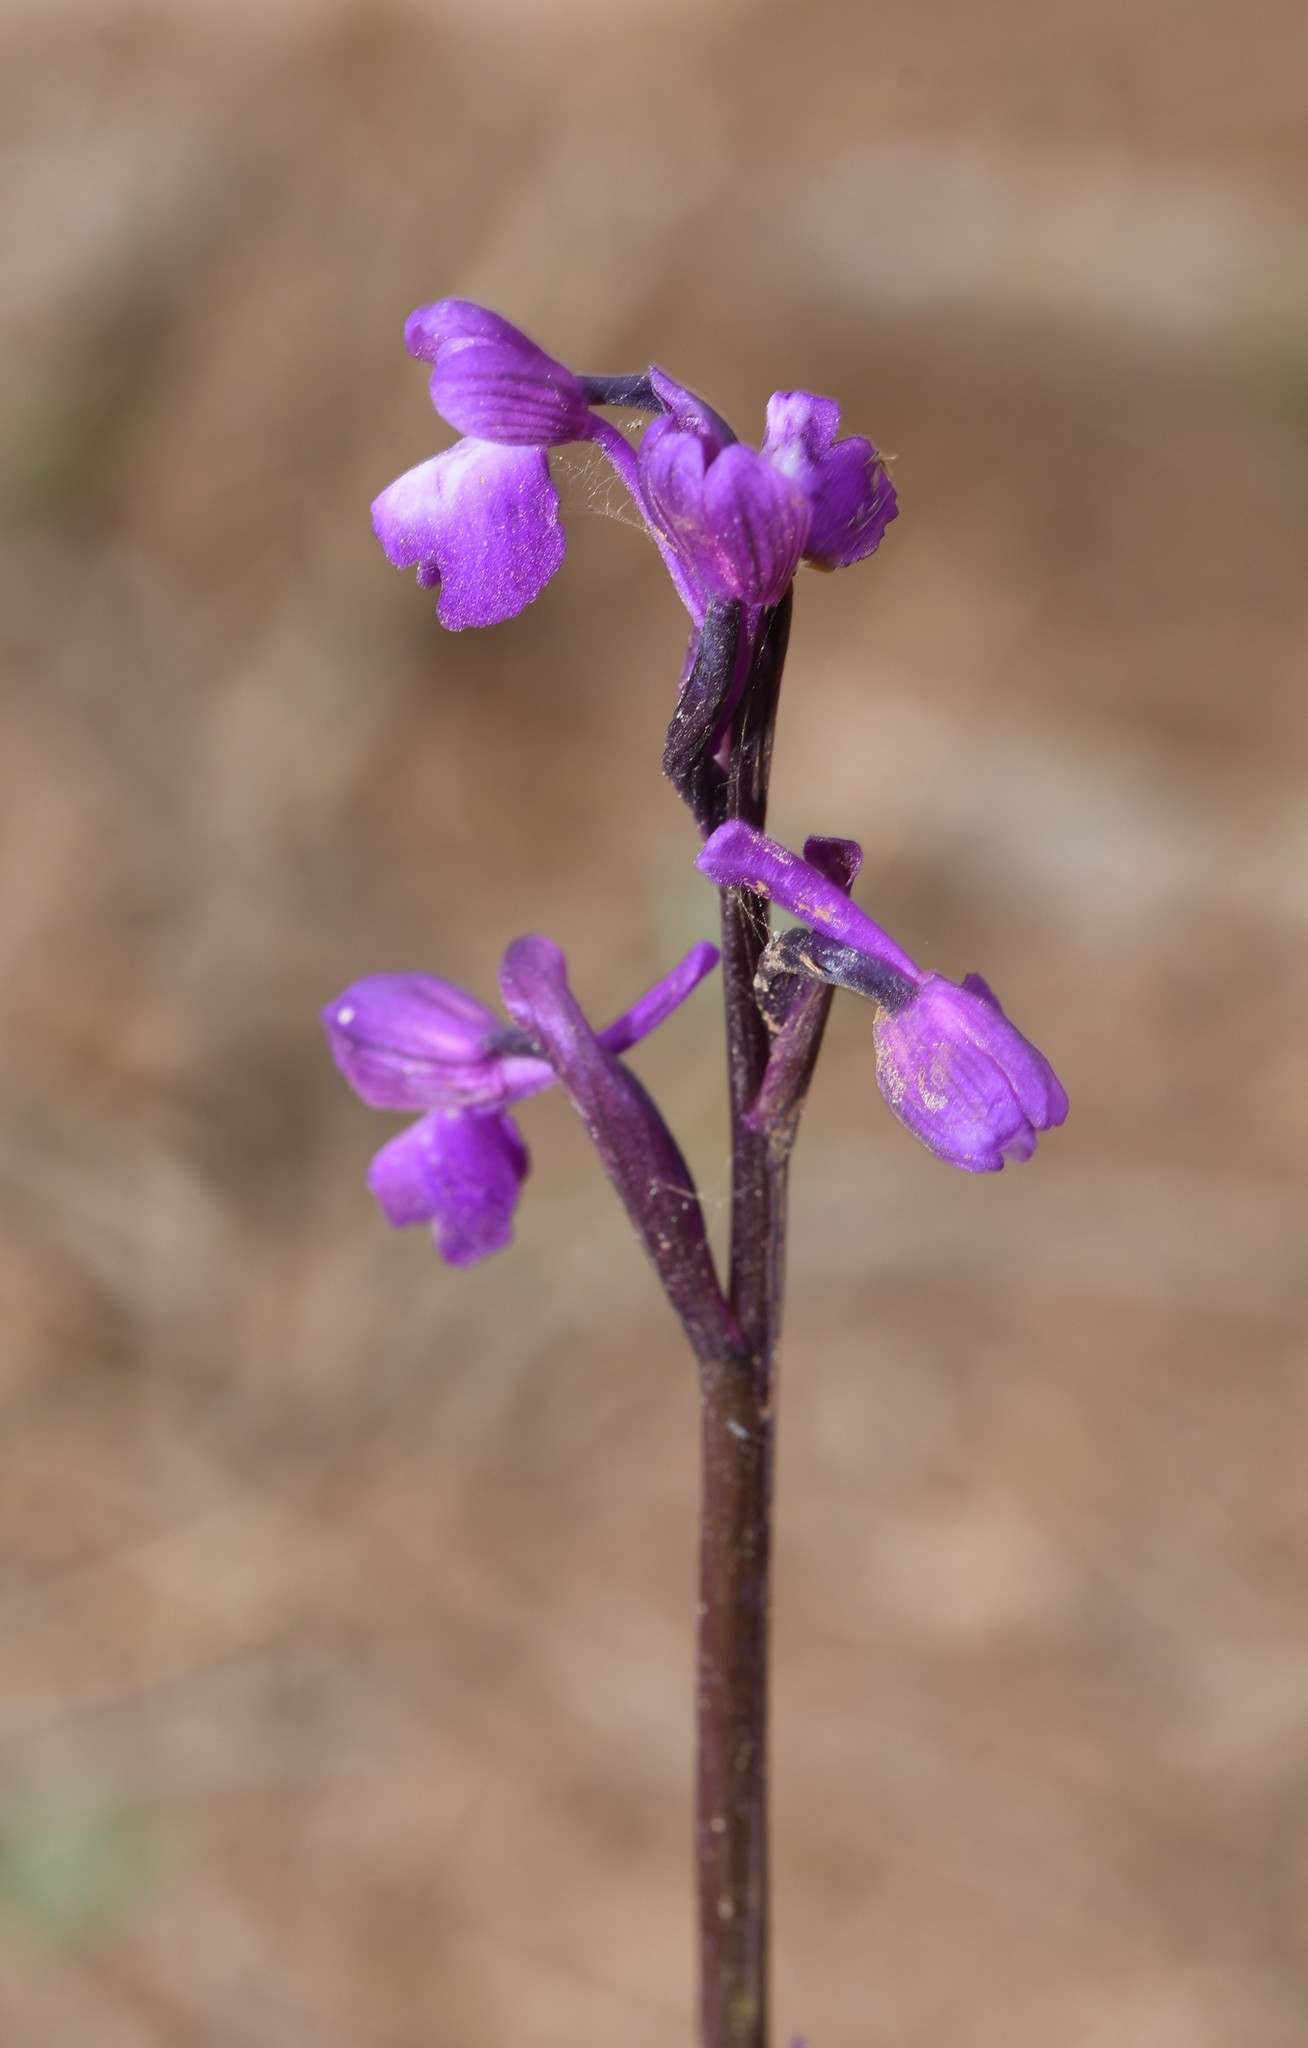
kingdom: Plantae
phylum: Tracheophyta
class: Liliopsida
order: Asparagales
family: Orchidaceae
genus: Anacamptis
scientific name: Anacamptis morio
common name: Green-winged orchid
